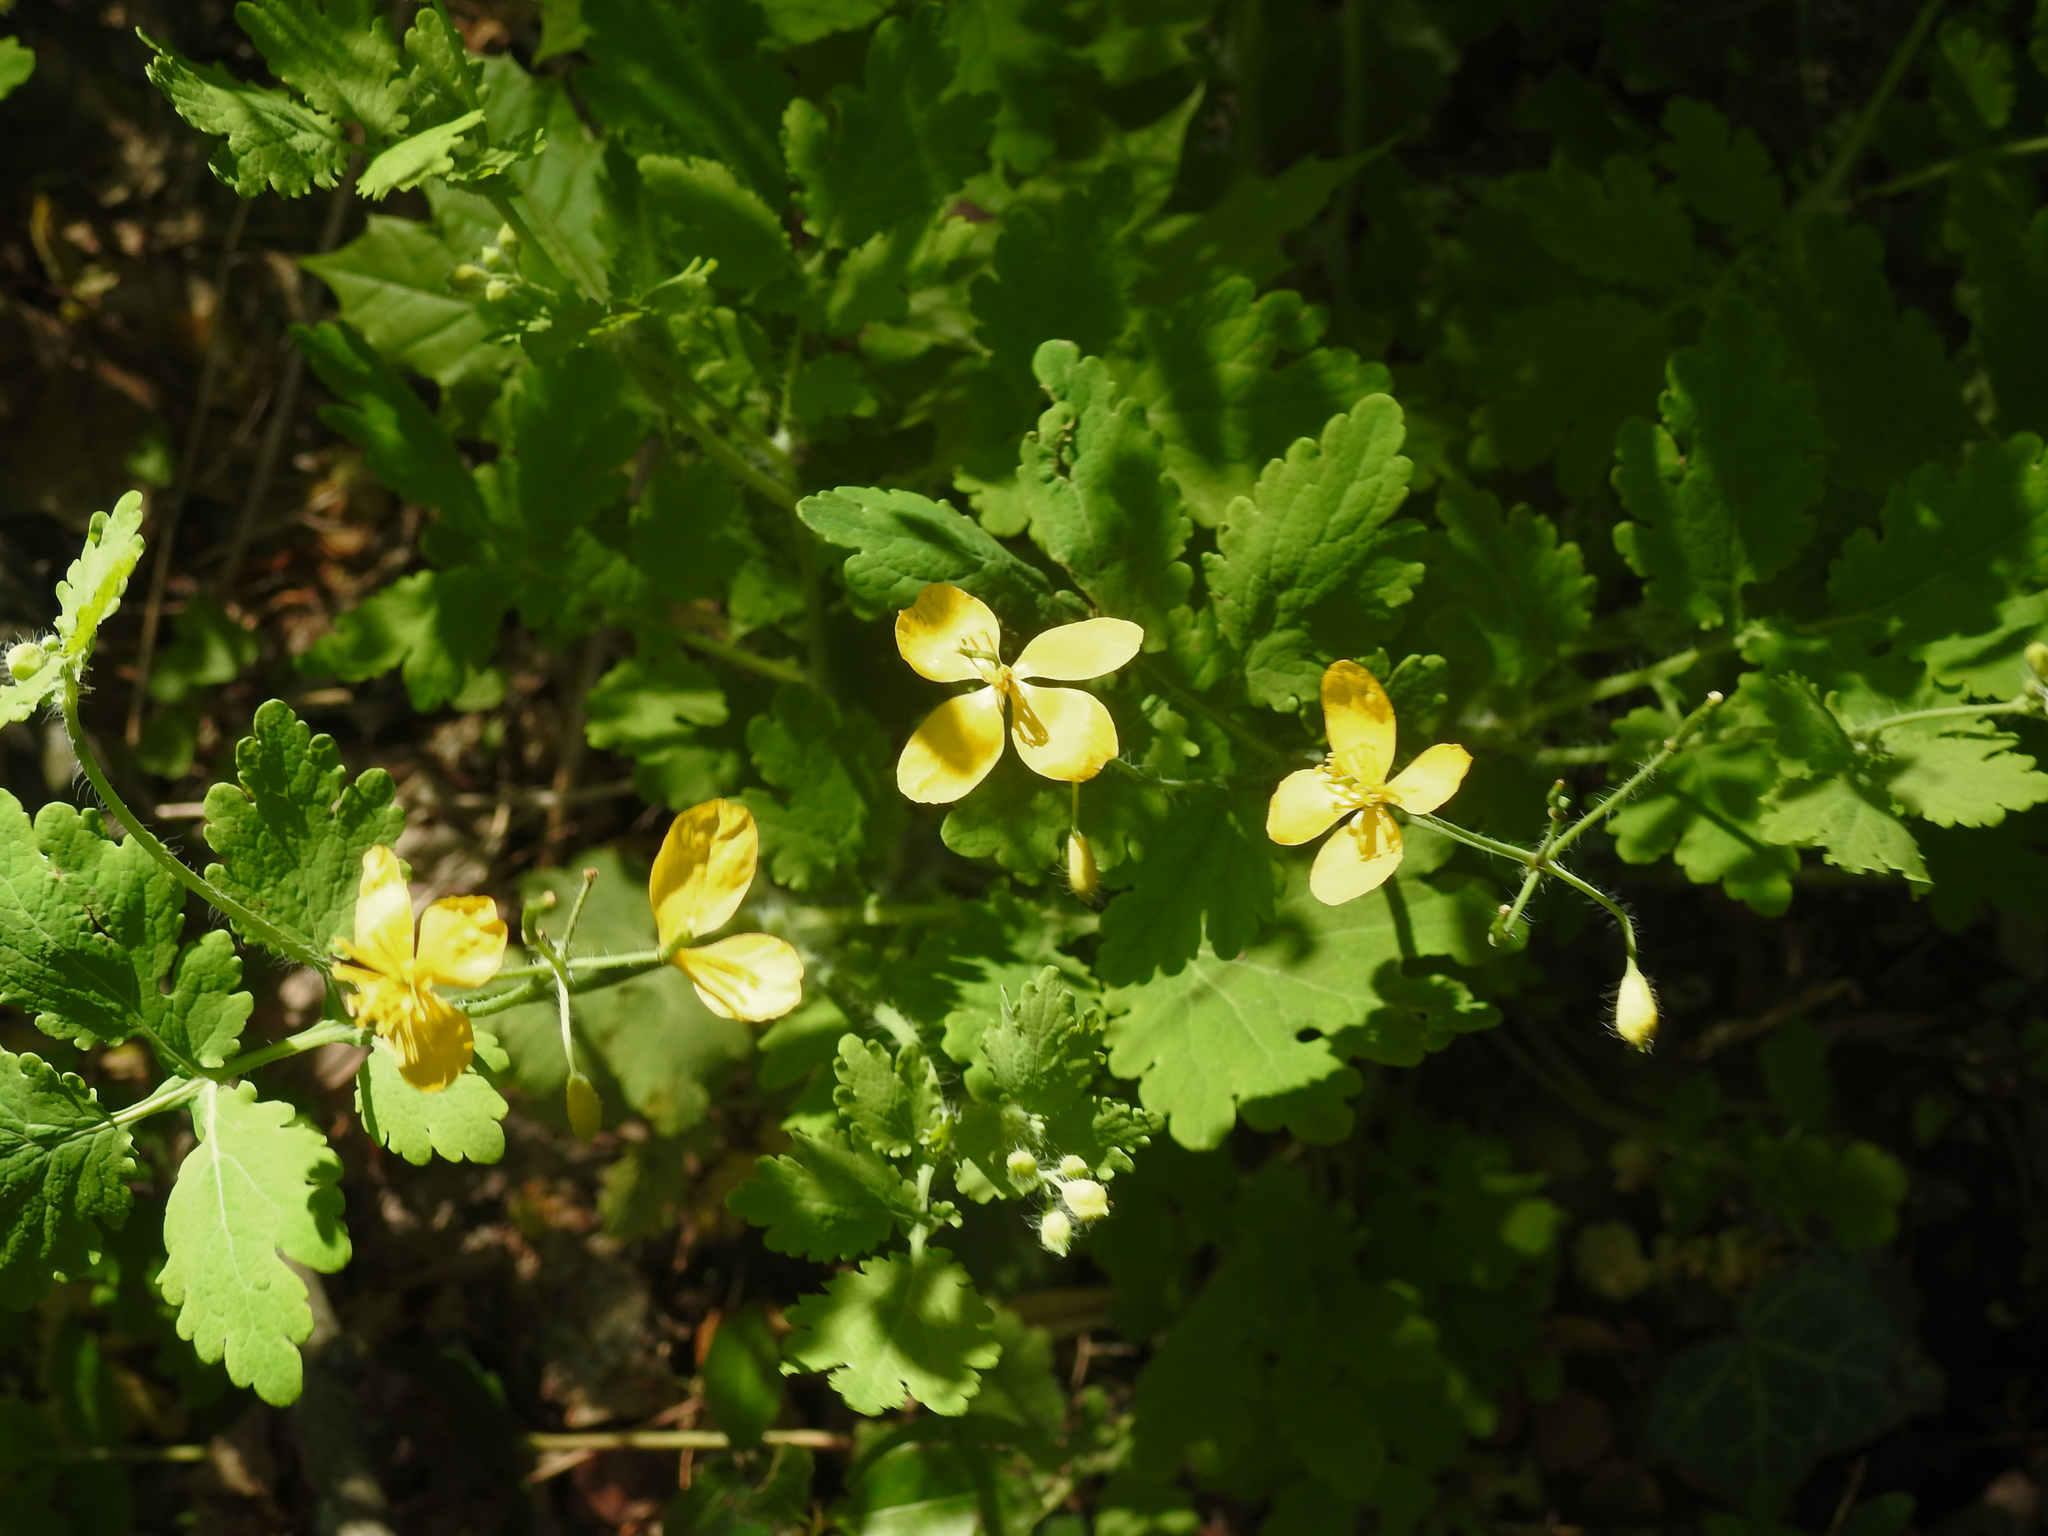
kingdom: Plantae
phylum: Tracheophyta
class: Magnoliopsida
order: Ranunculales
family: Papaveraceae
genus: Chelidonium
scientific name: Chelidonium majus
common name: Greater celandine
